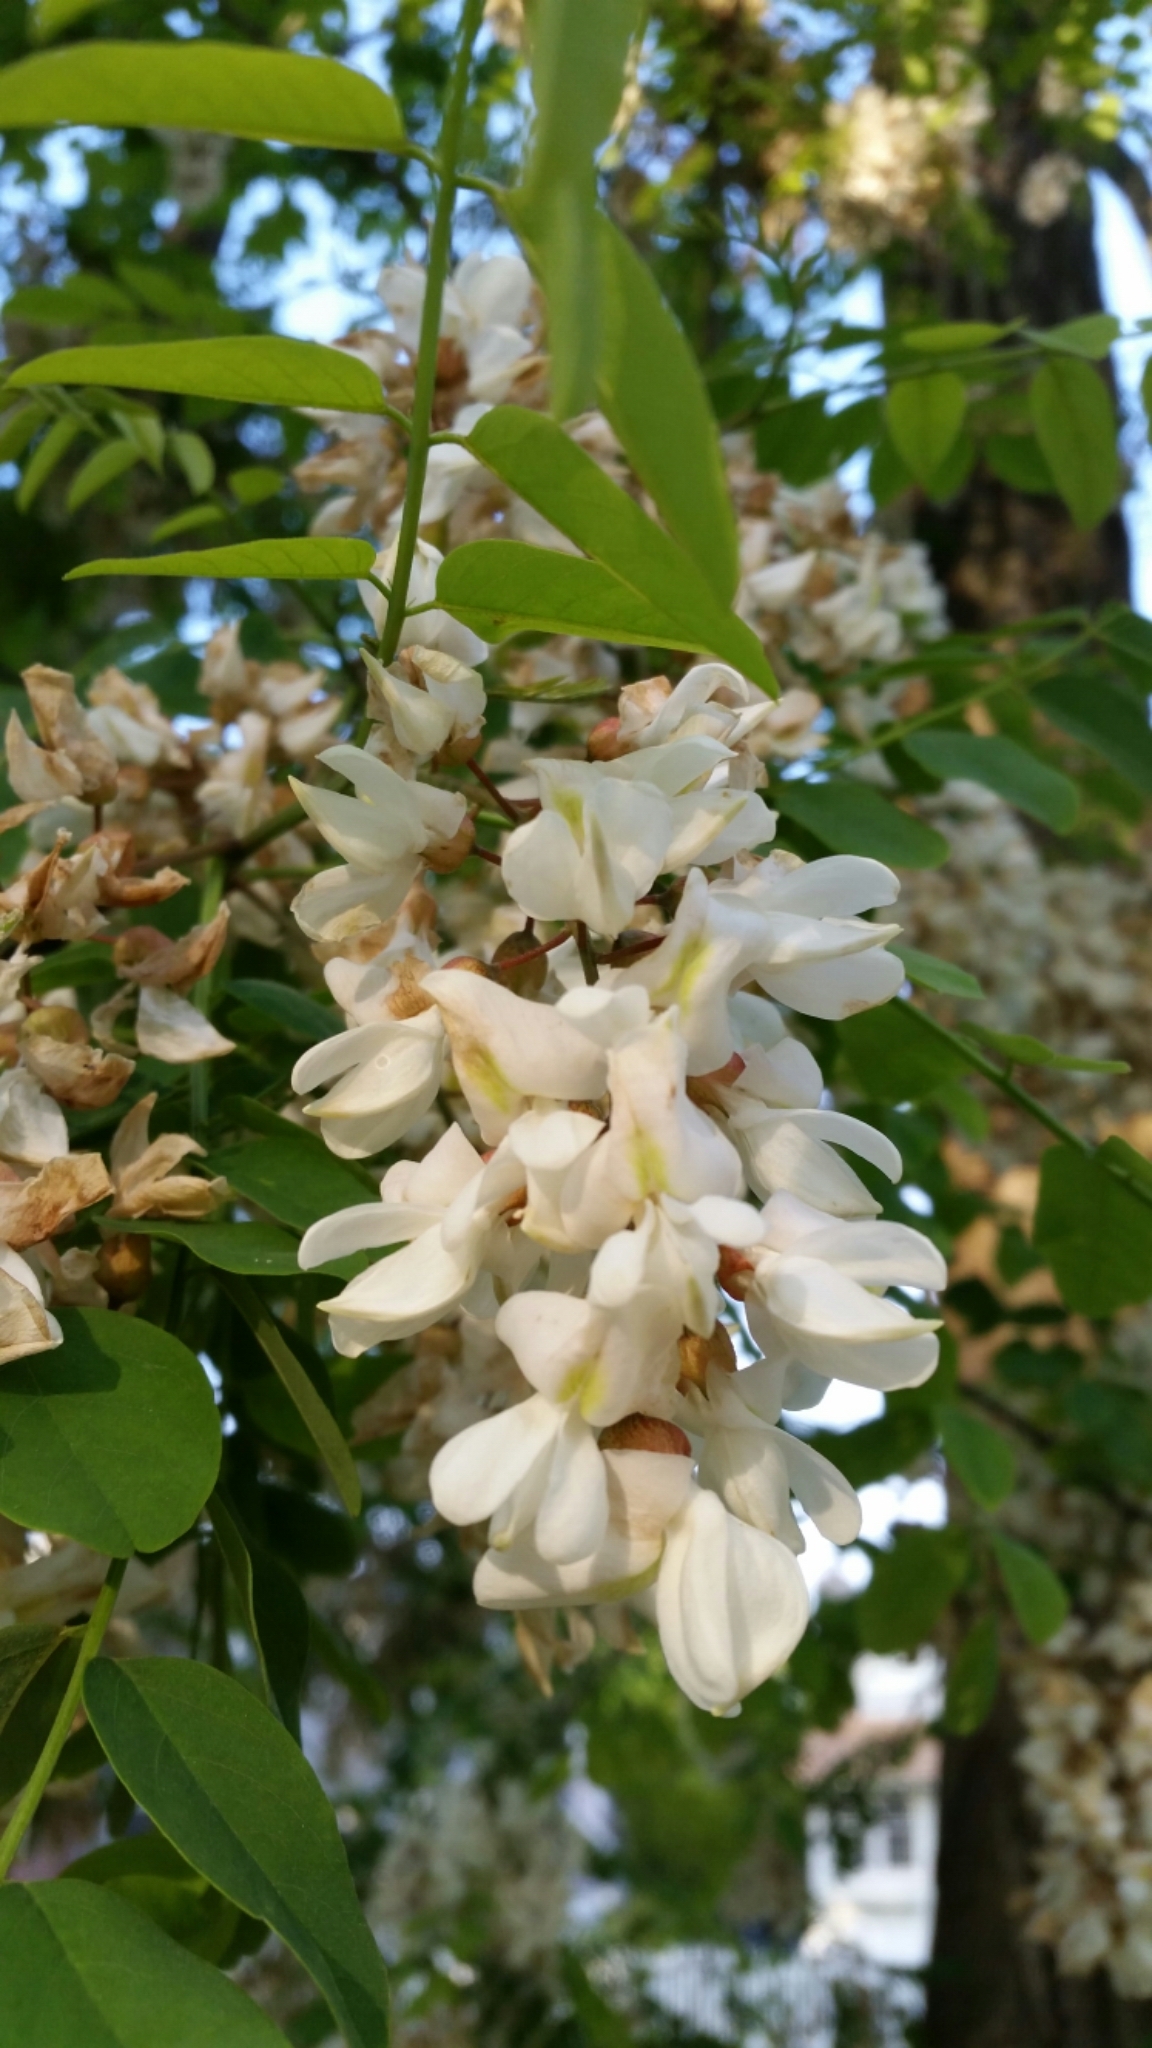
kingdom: Plantae
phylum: Tracheophyta
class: Magnoliopsida
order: Fabales
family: Fabaceae
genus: Robinia
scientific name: Robinia pseudoacacia
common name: Black locust
